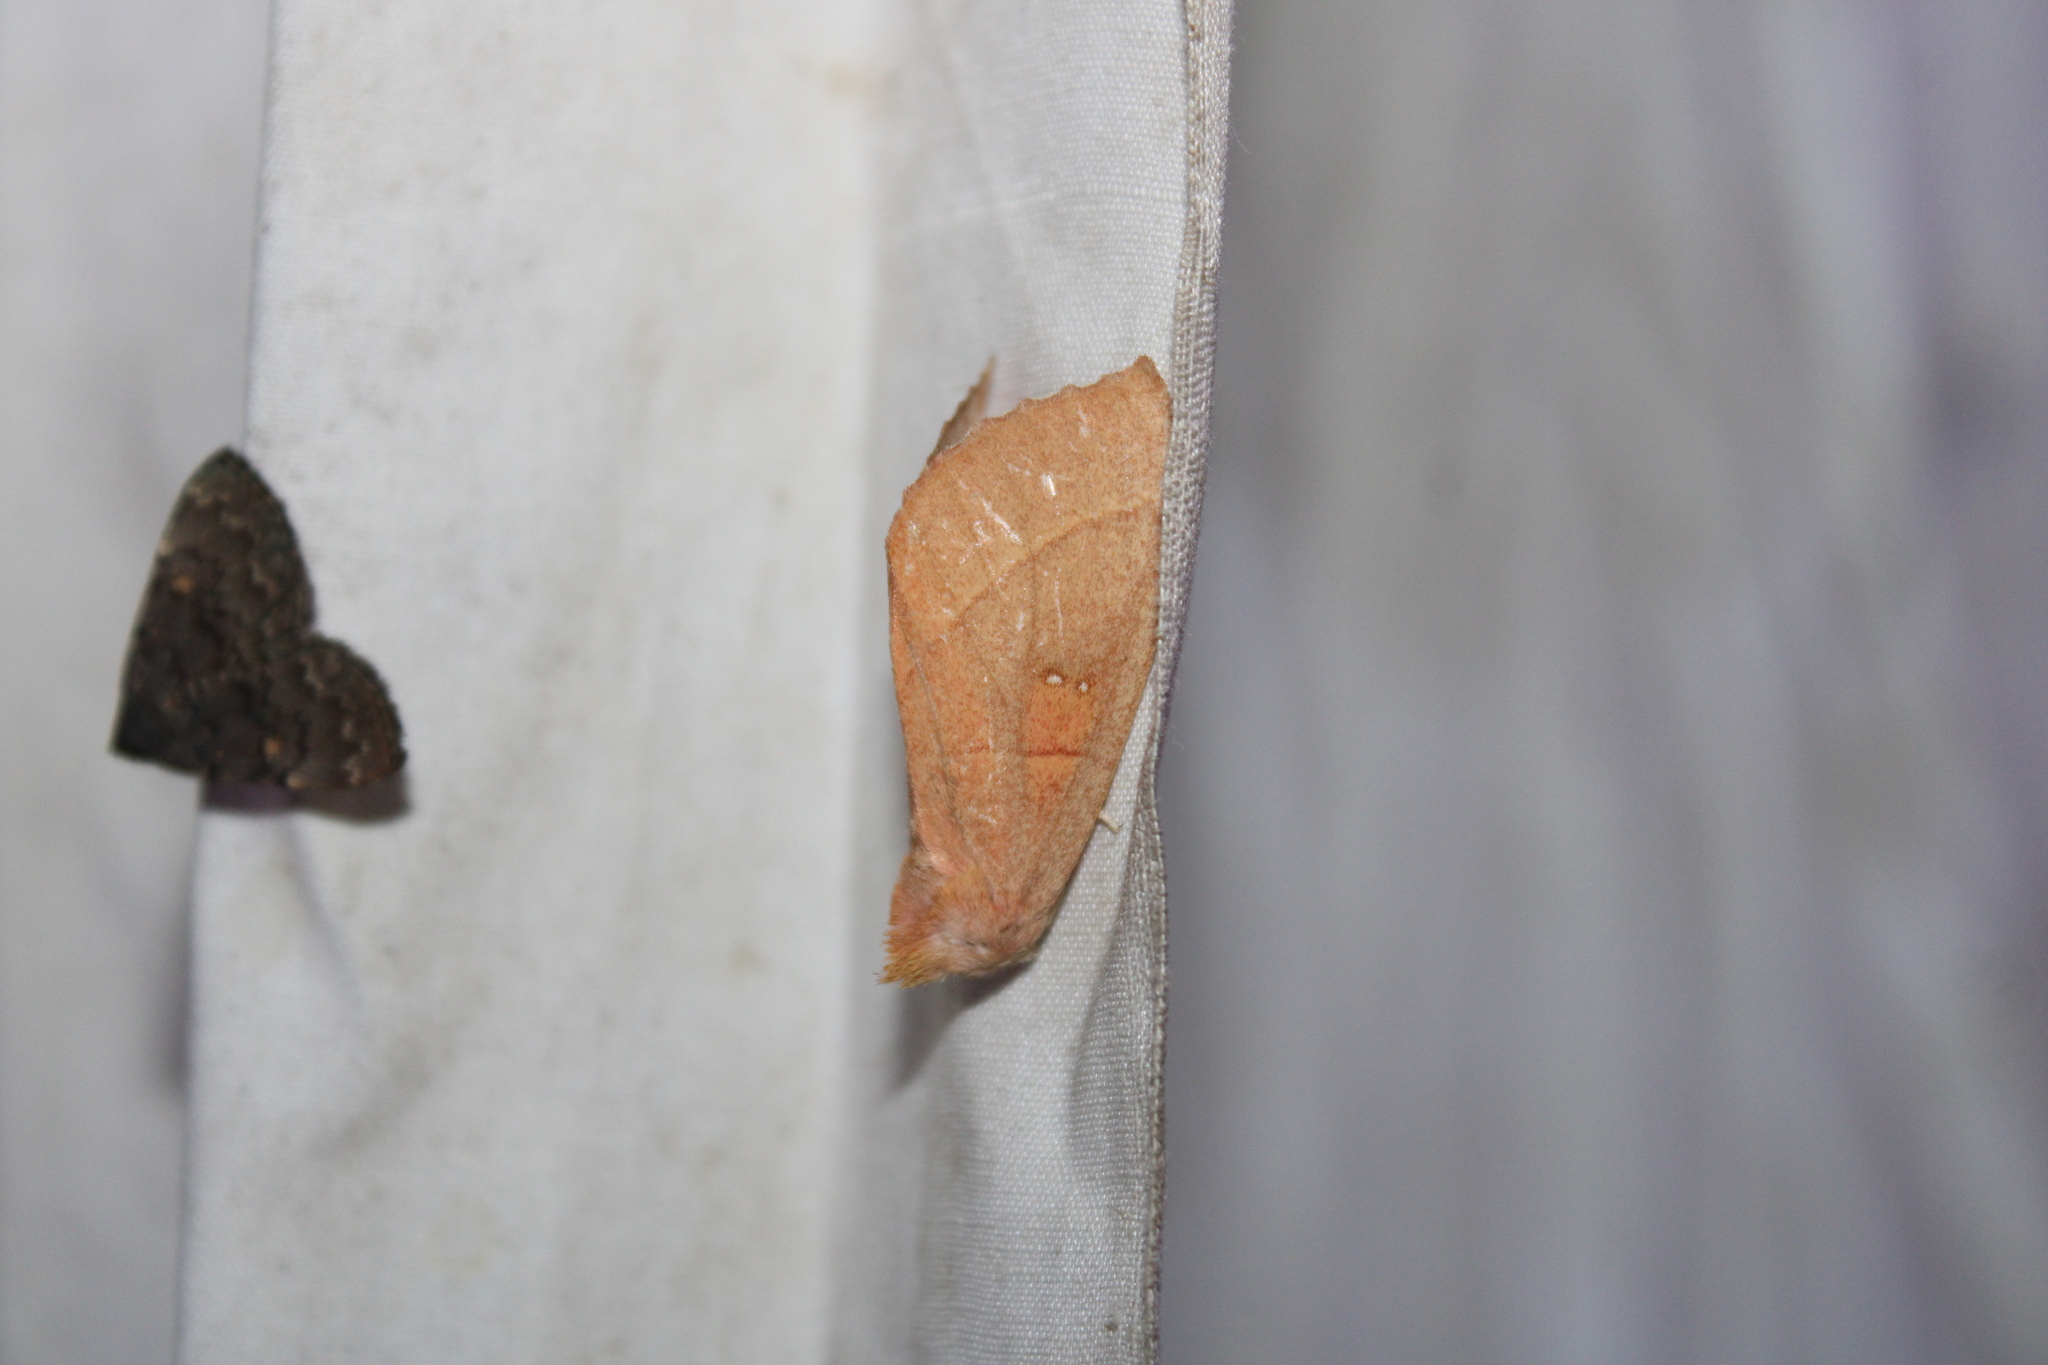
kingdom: Animalia
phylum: Arthropoda
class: Insecta
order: Lepidoptera
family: Notodontidae
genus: Nadata
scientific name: Nadata gibbosa
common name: White-dotted prominent
